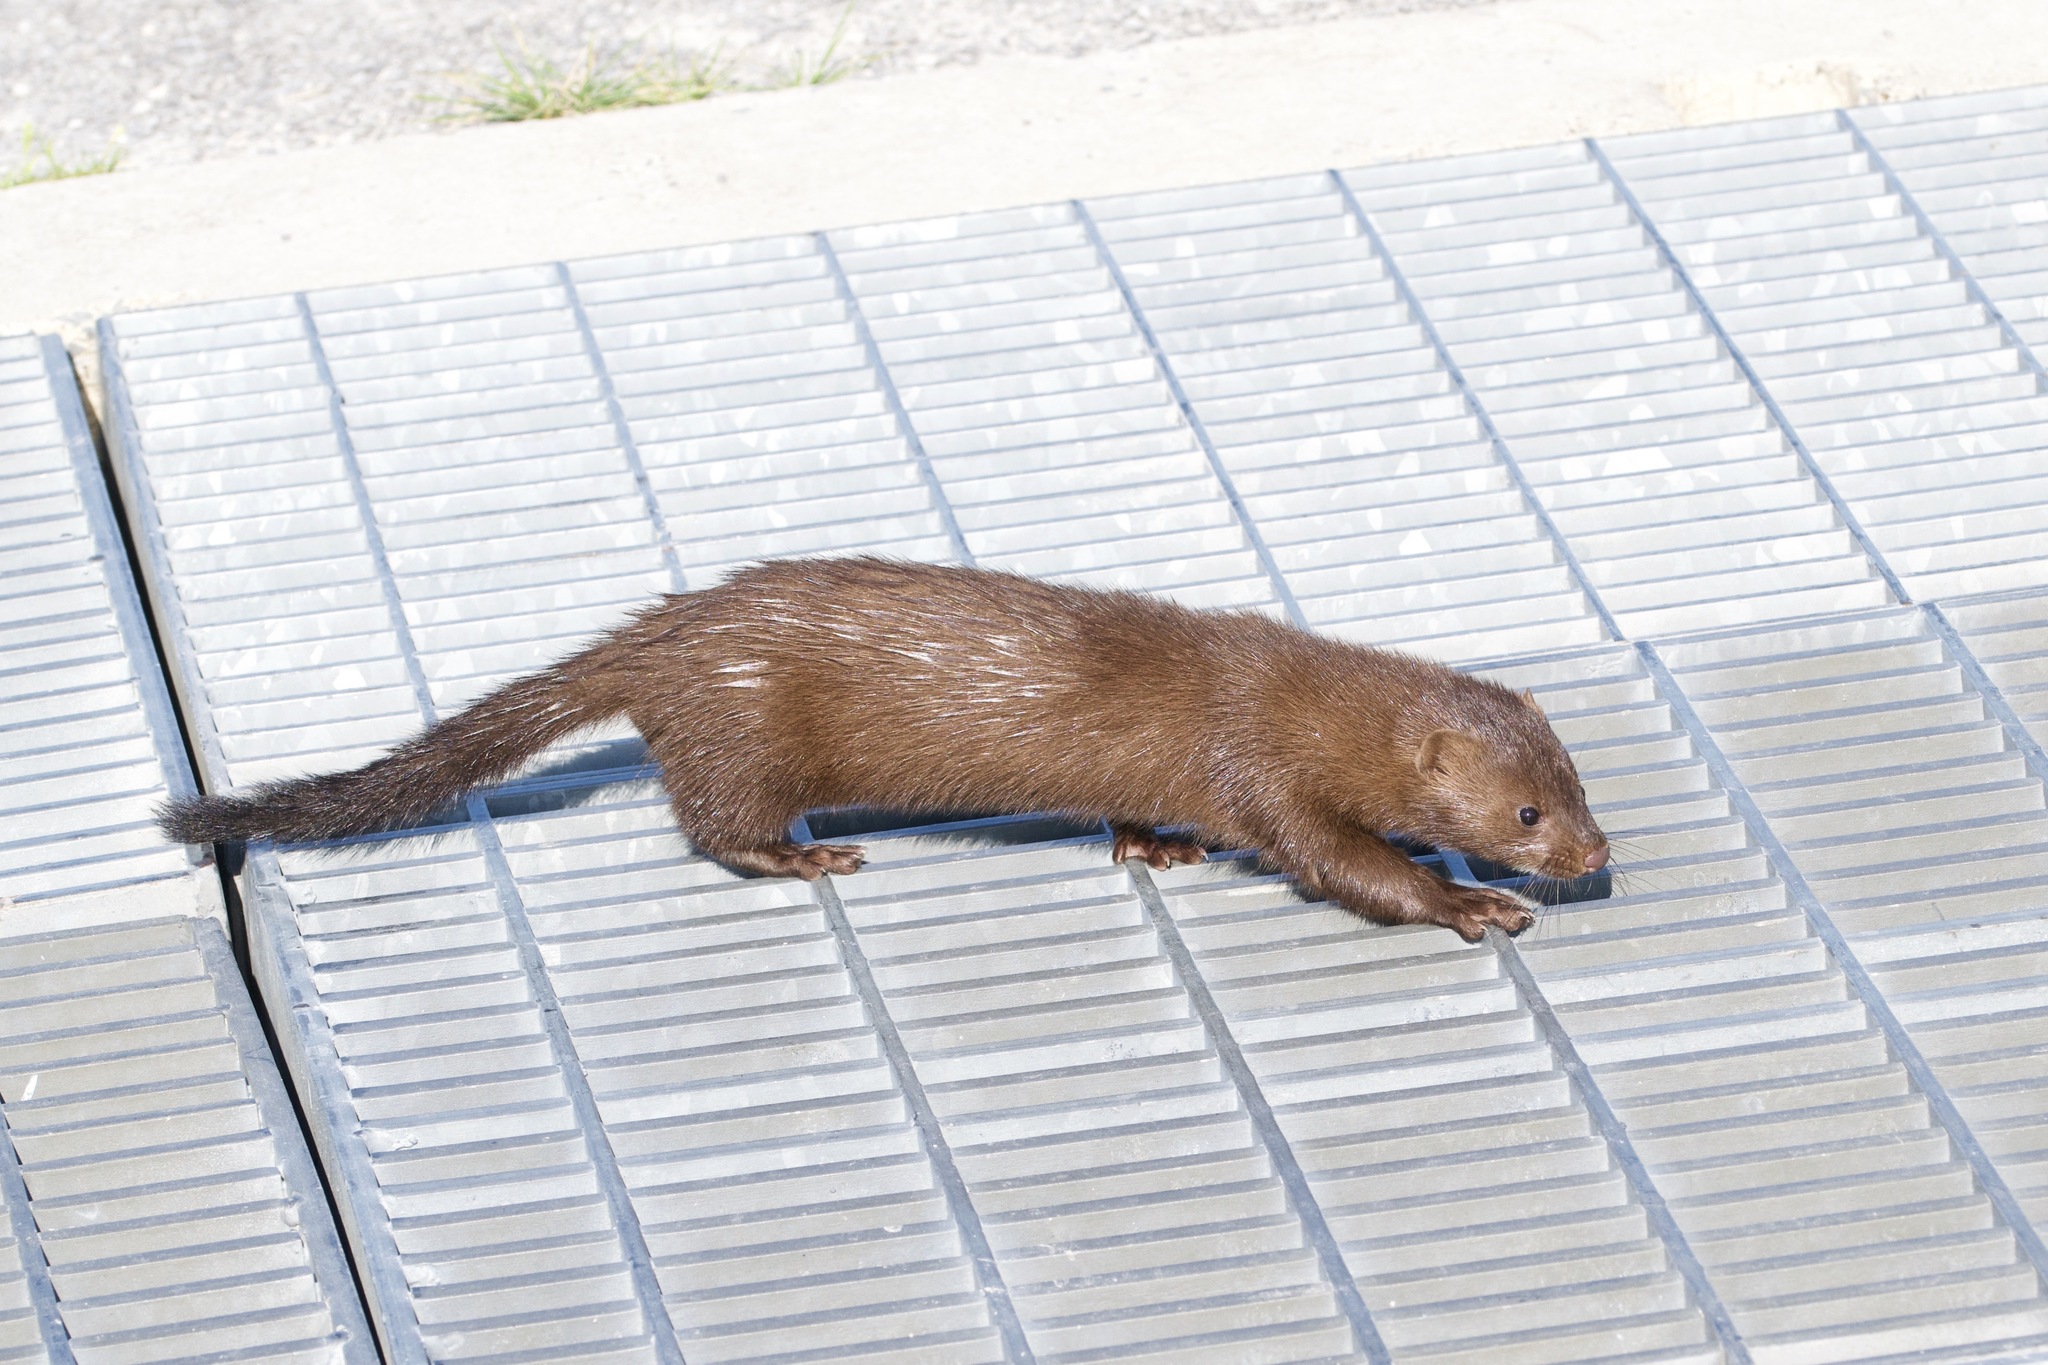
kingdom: Animalia
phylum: Chordata
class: Mammalia
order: Carnivora
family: Mustelidae
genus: Mustela
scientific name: Mustela
